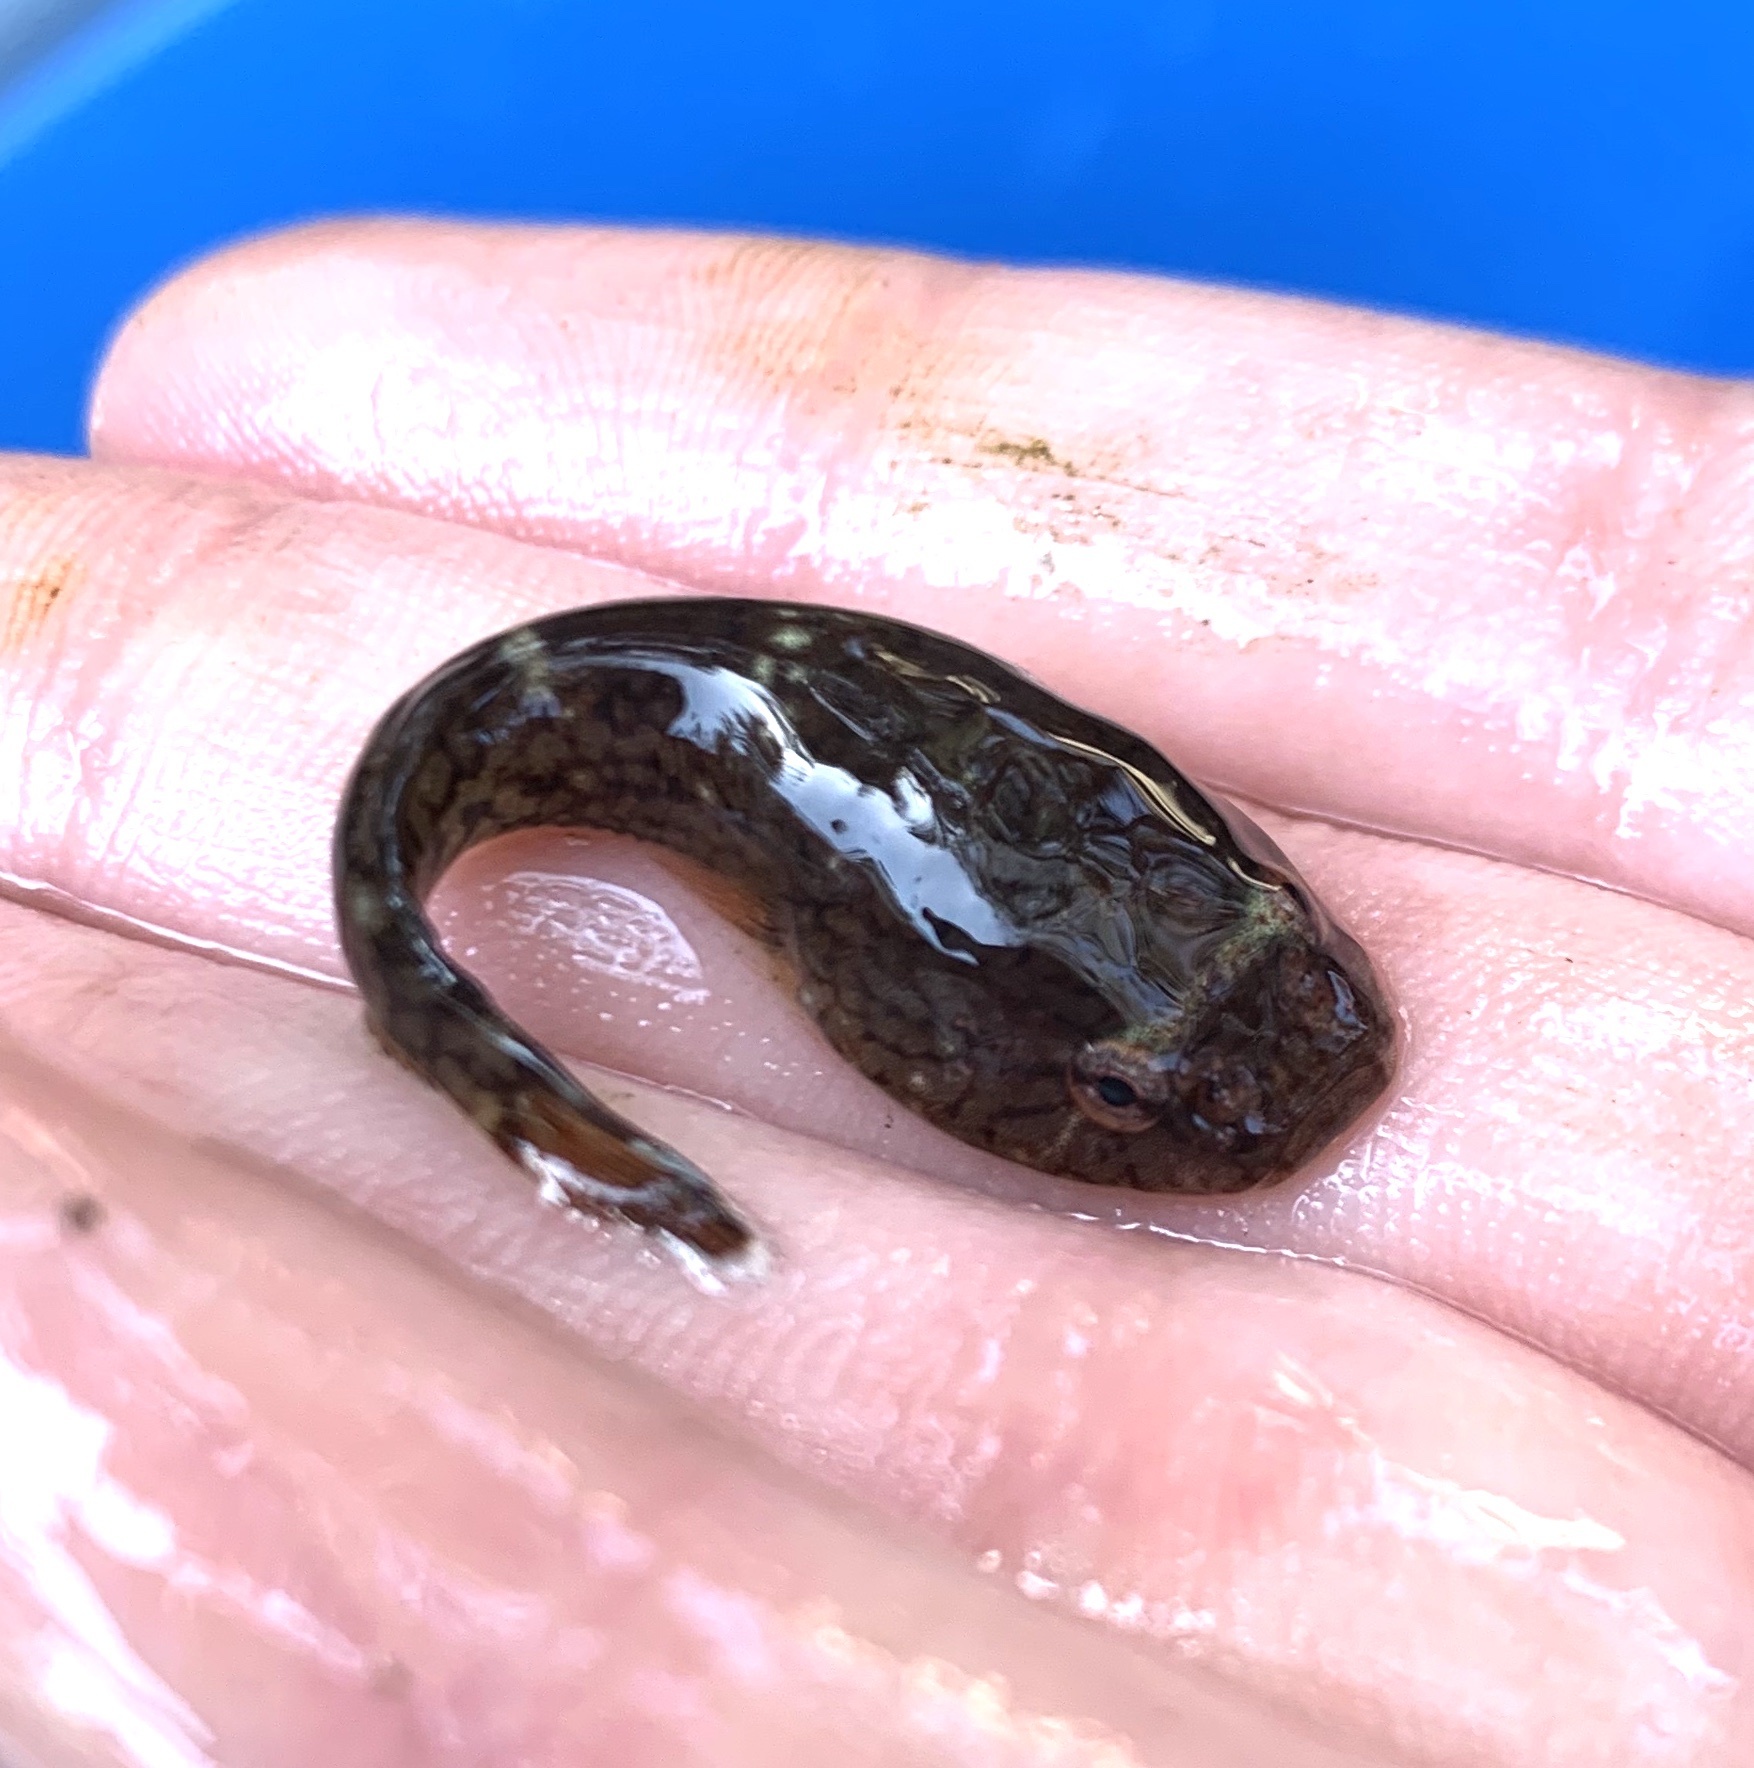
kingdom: Animalia
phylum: Chordata
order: Gobiesociformes
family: Gobiesocidae
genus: Gobiesox
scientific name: Gobiesox maeandricus
